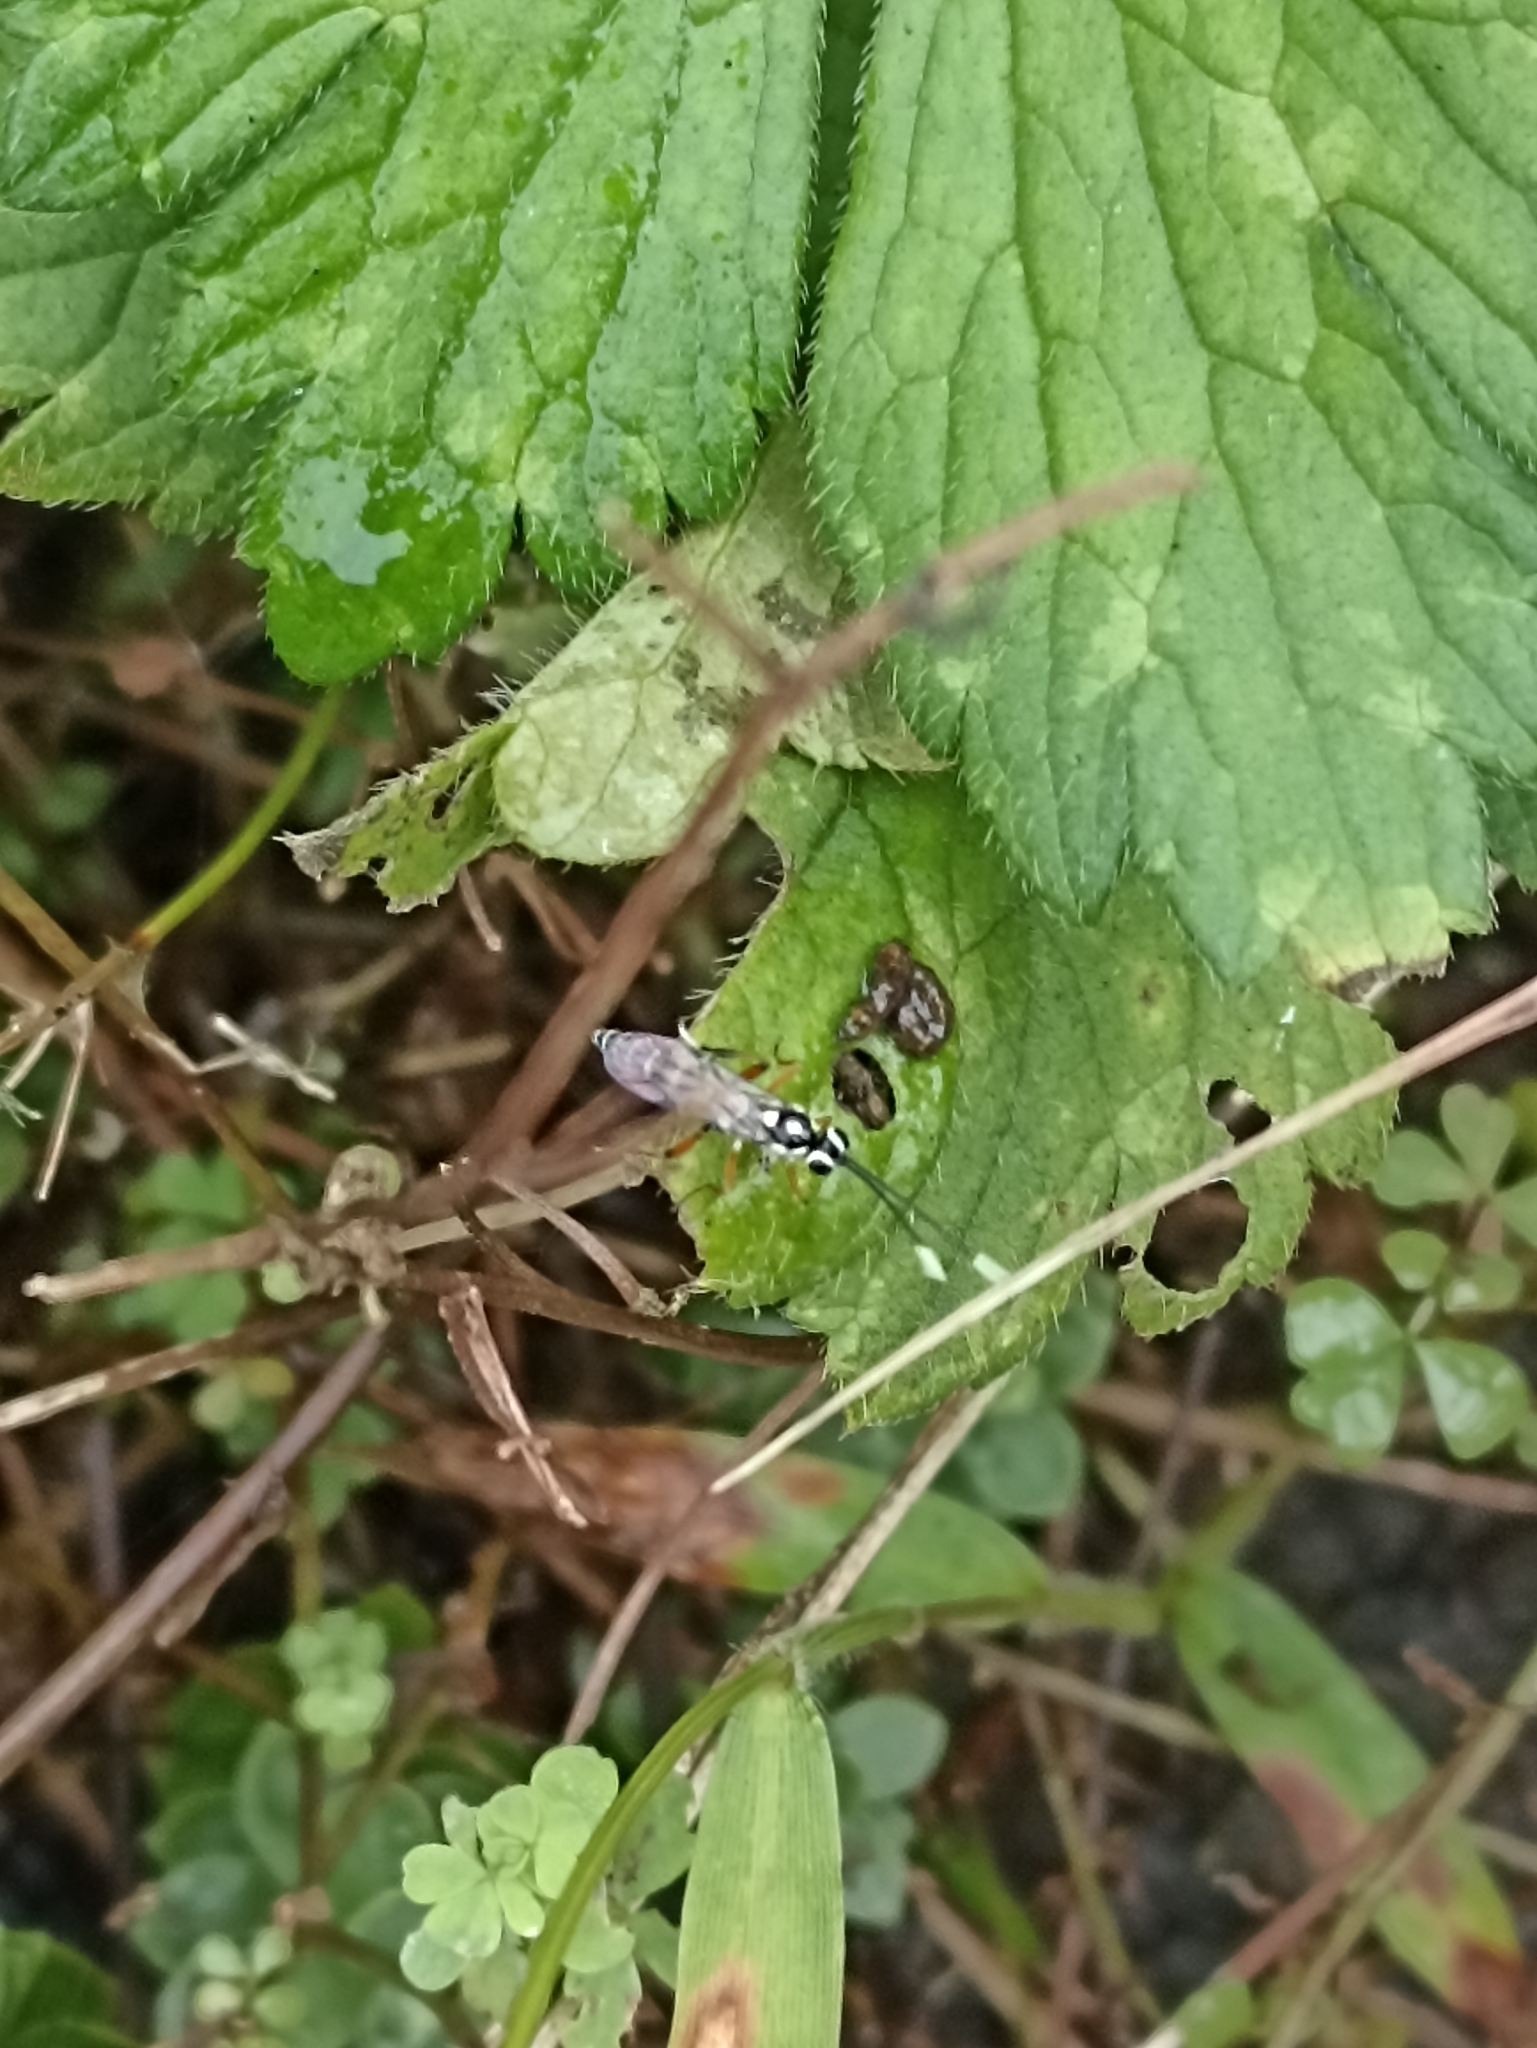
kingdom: Animalia
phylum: Arthropoda
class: Insecta
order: Hymenoptera
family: Ichneumonidae
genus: Glabridorsum
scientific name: Glabridorsum stokesii
